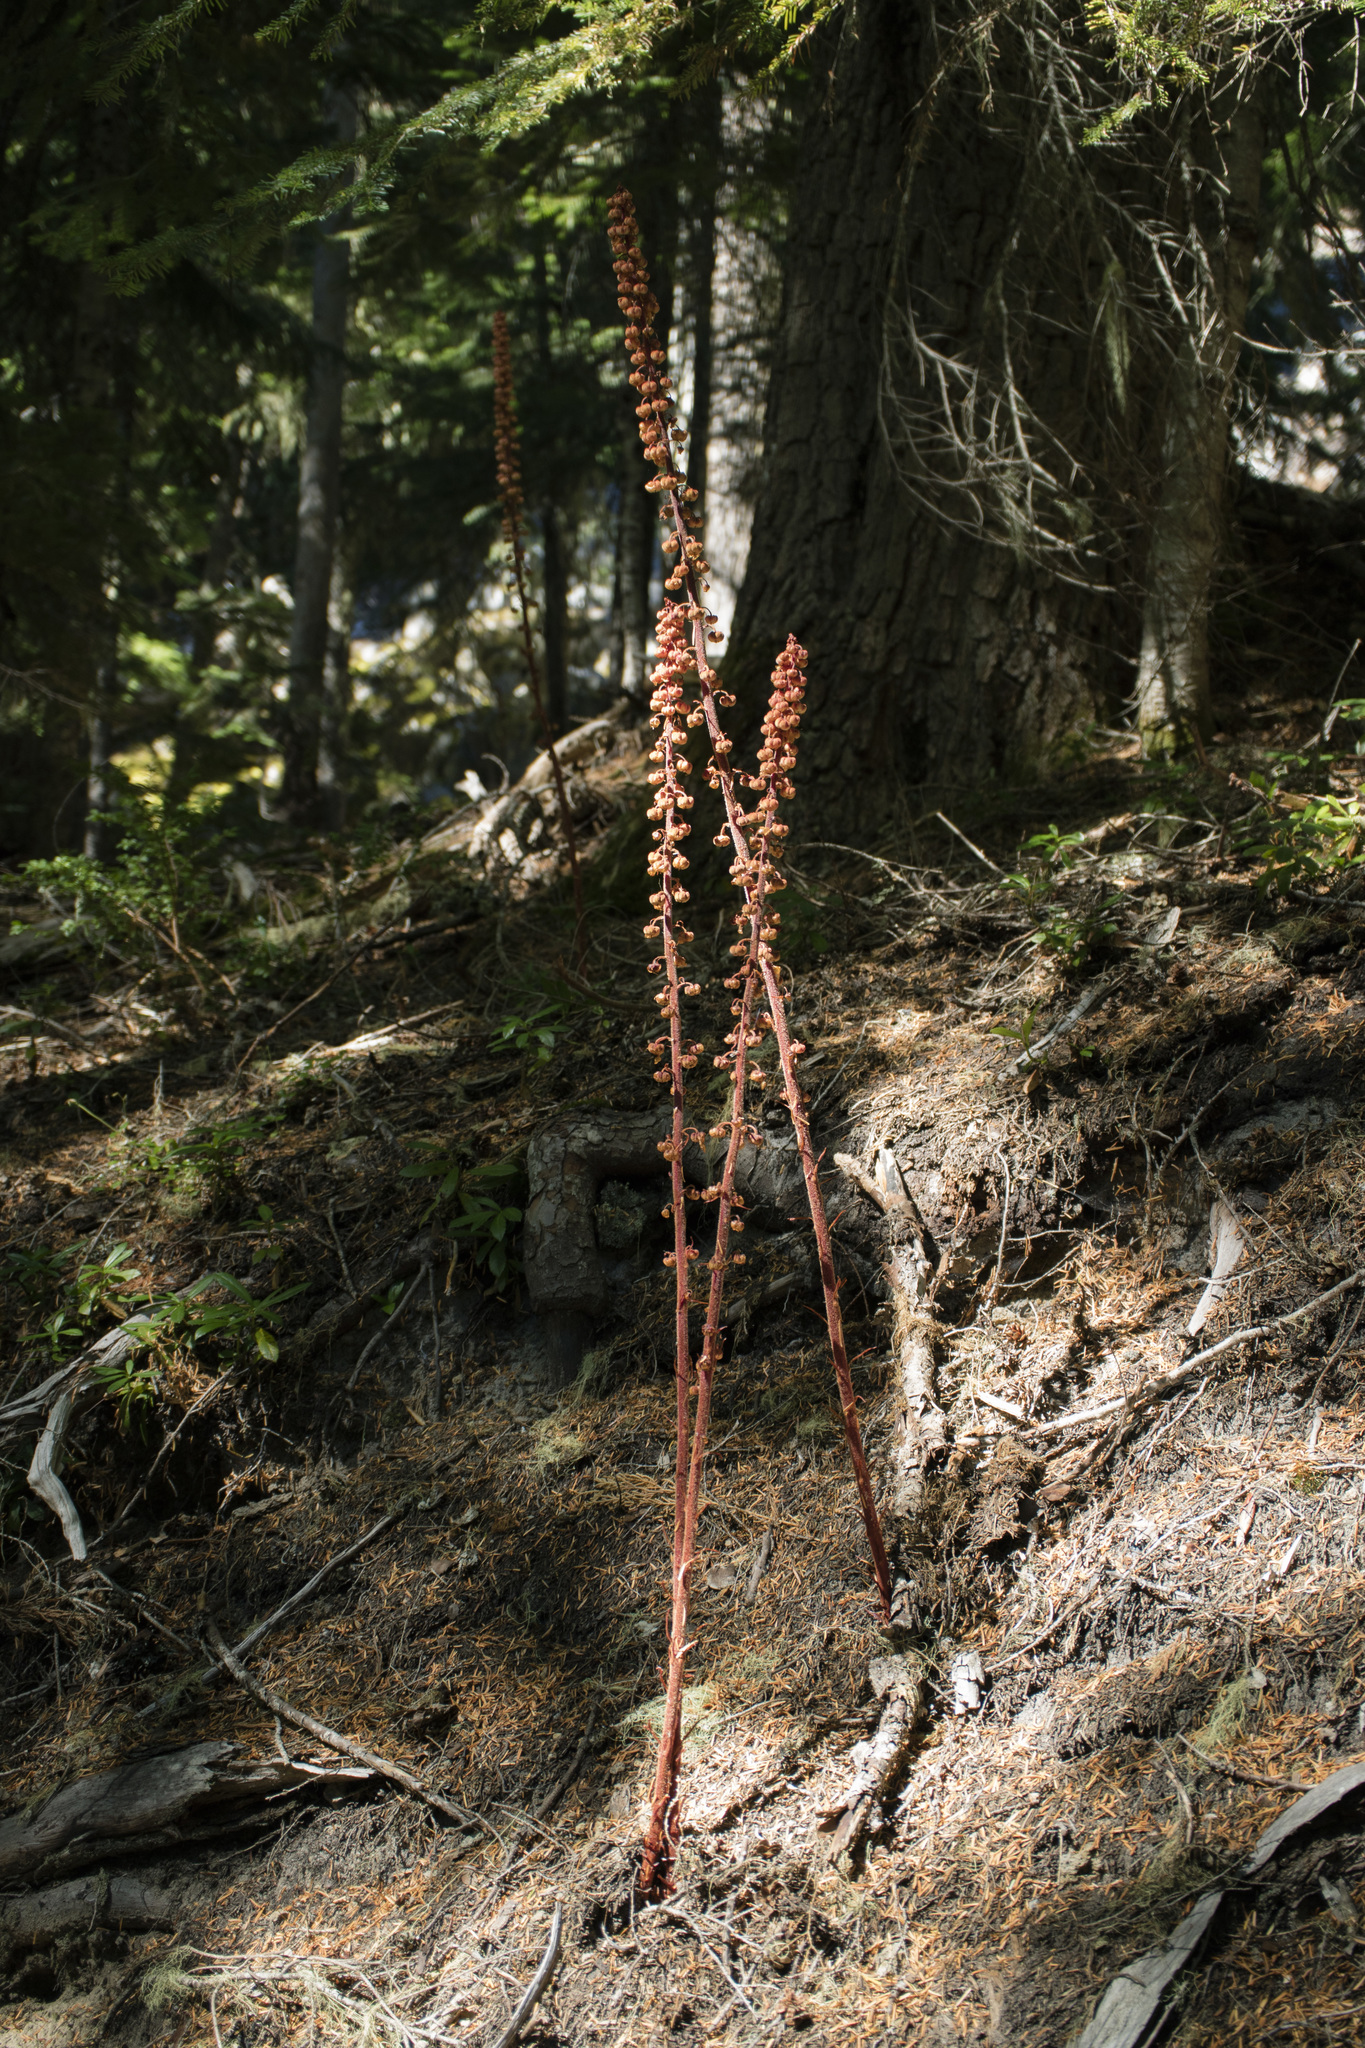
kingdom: Plantae
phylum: Tracheophyta
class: Magnoliopsida
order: Ericales
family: Ericaceae
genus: Pterospora
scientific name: Pterospora andromedea
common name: Giant bird's-nest
